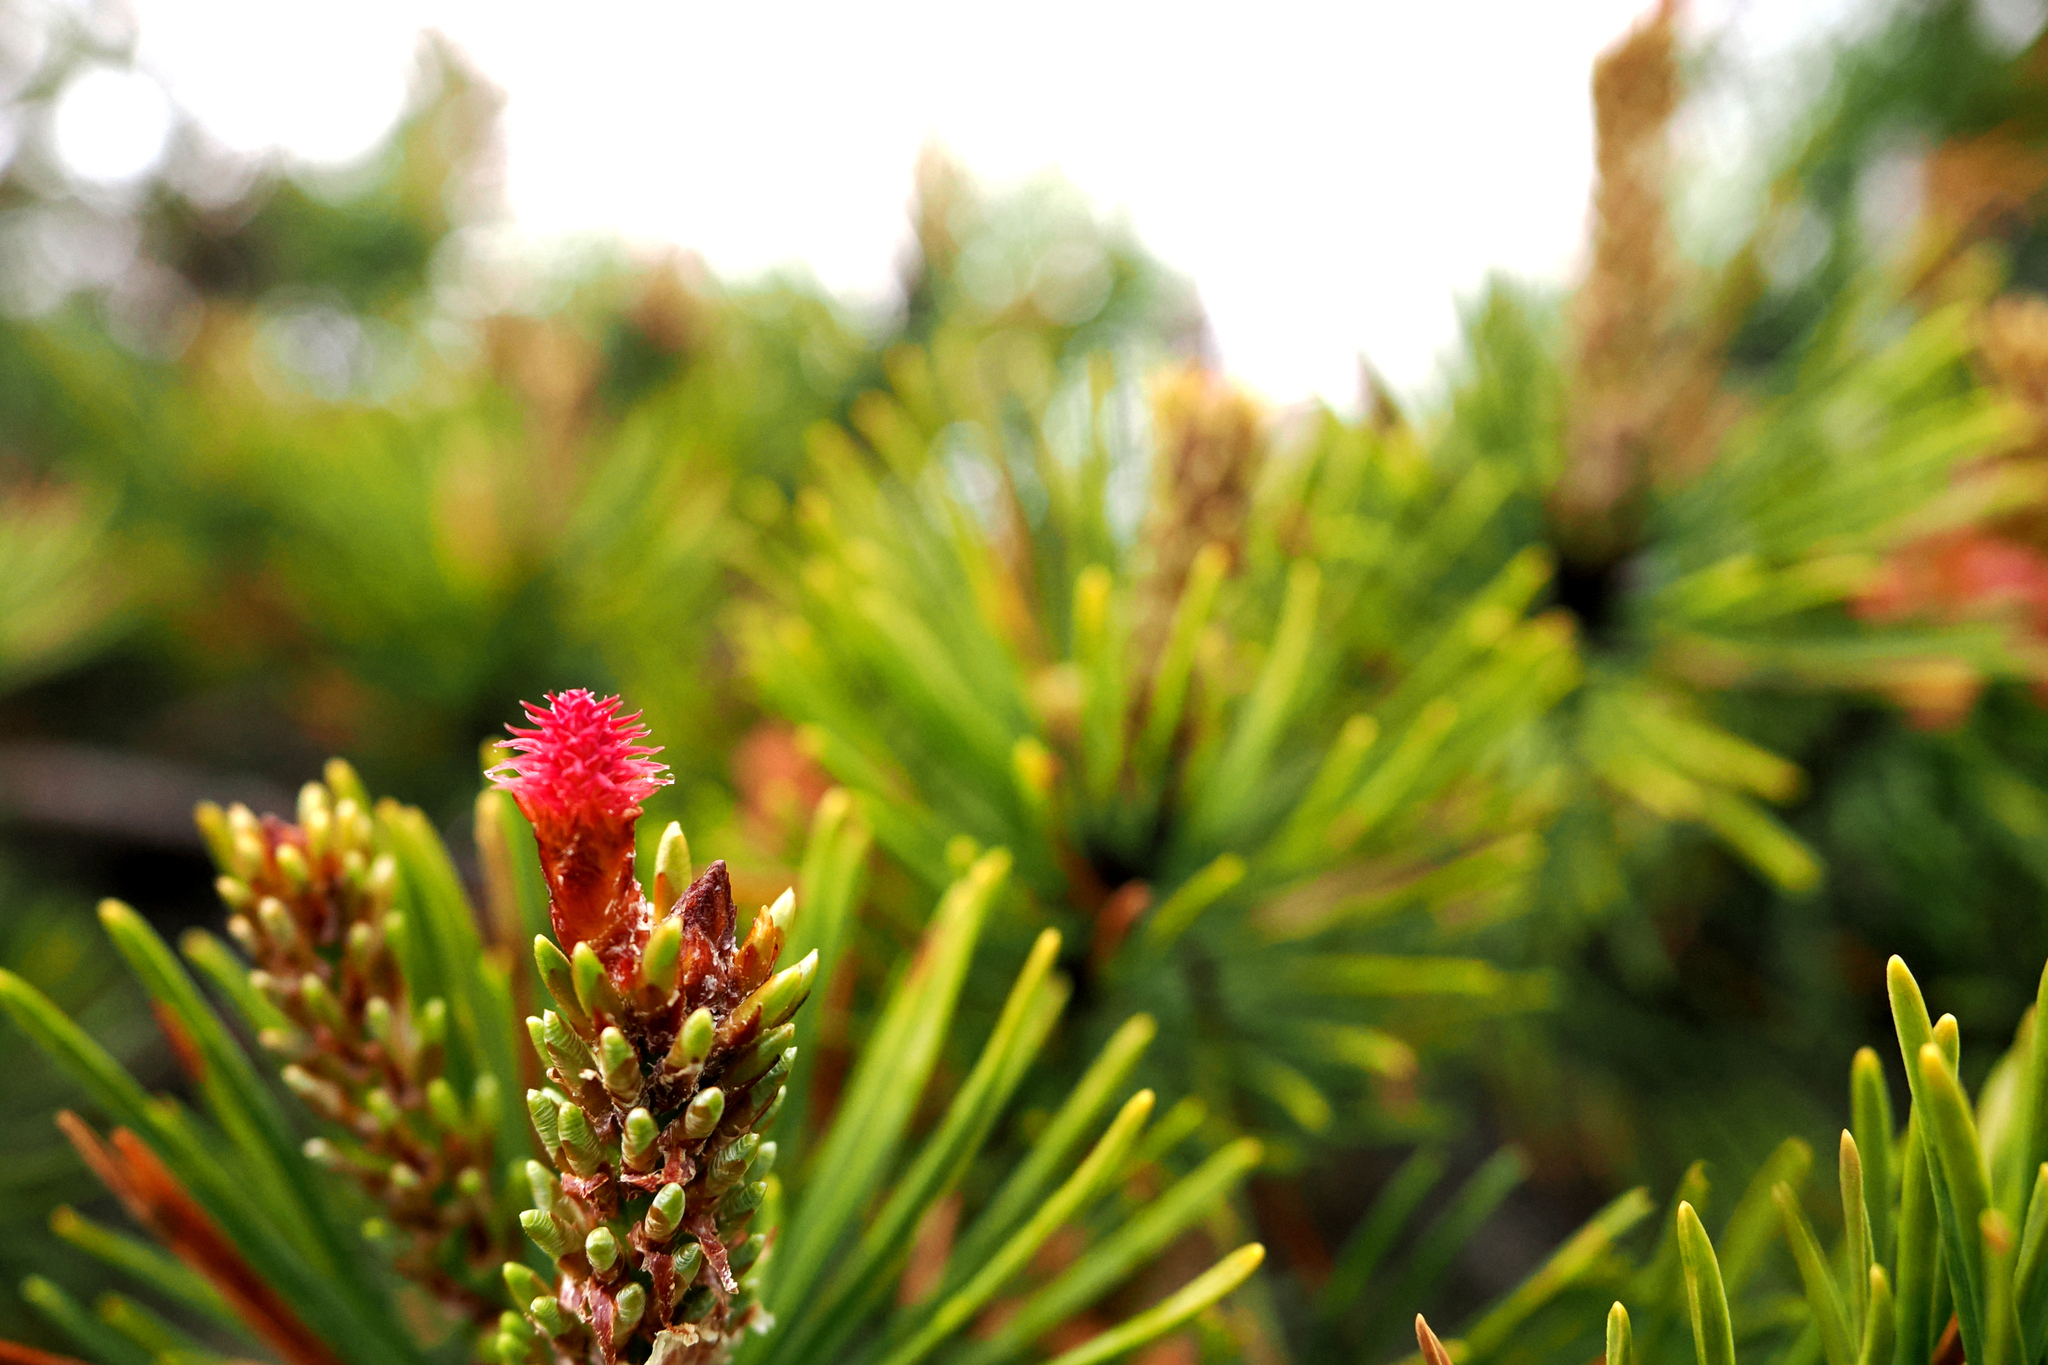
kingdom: Plantae
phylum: Tracheophyta
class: Pinopsida
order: Pinales
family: Pinaceae
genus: Pinus
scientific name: Pinus contorta
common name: Lodgepole pine
